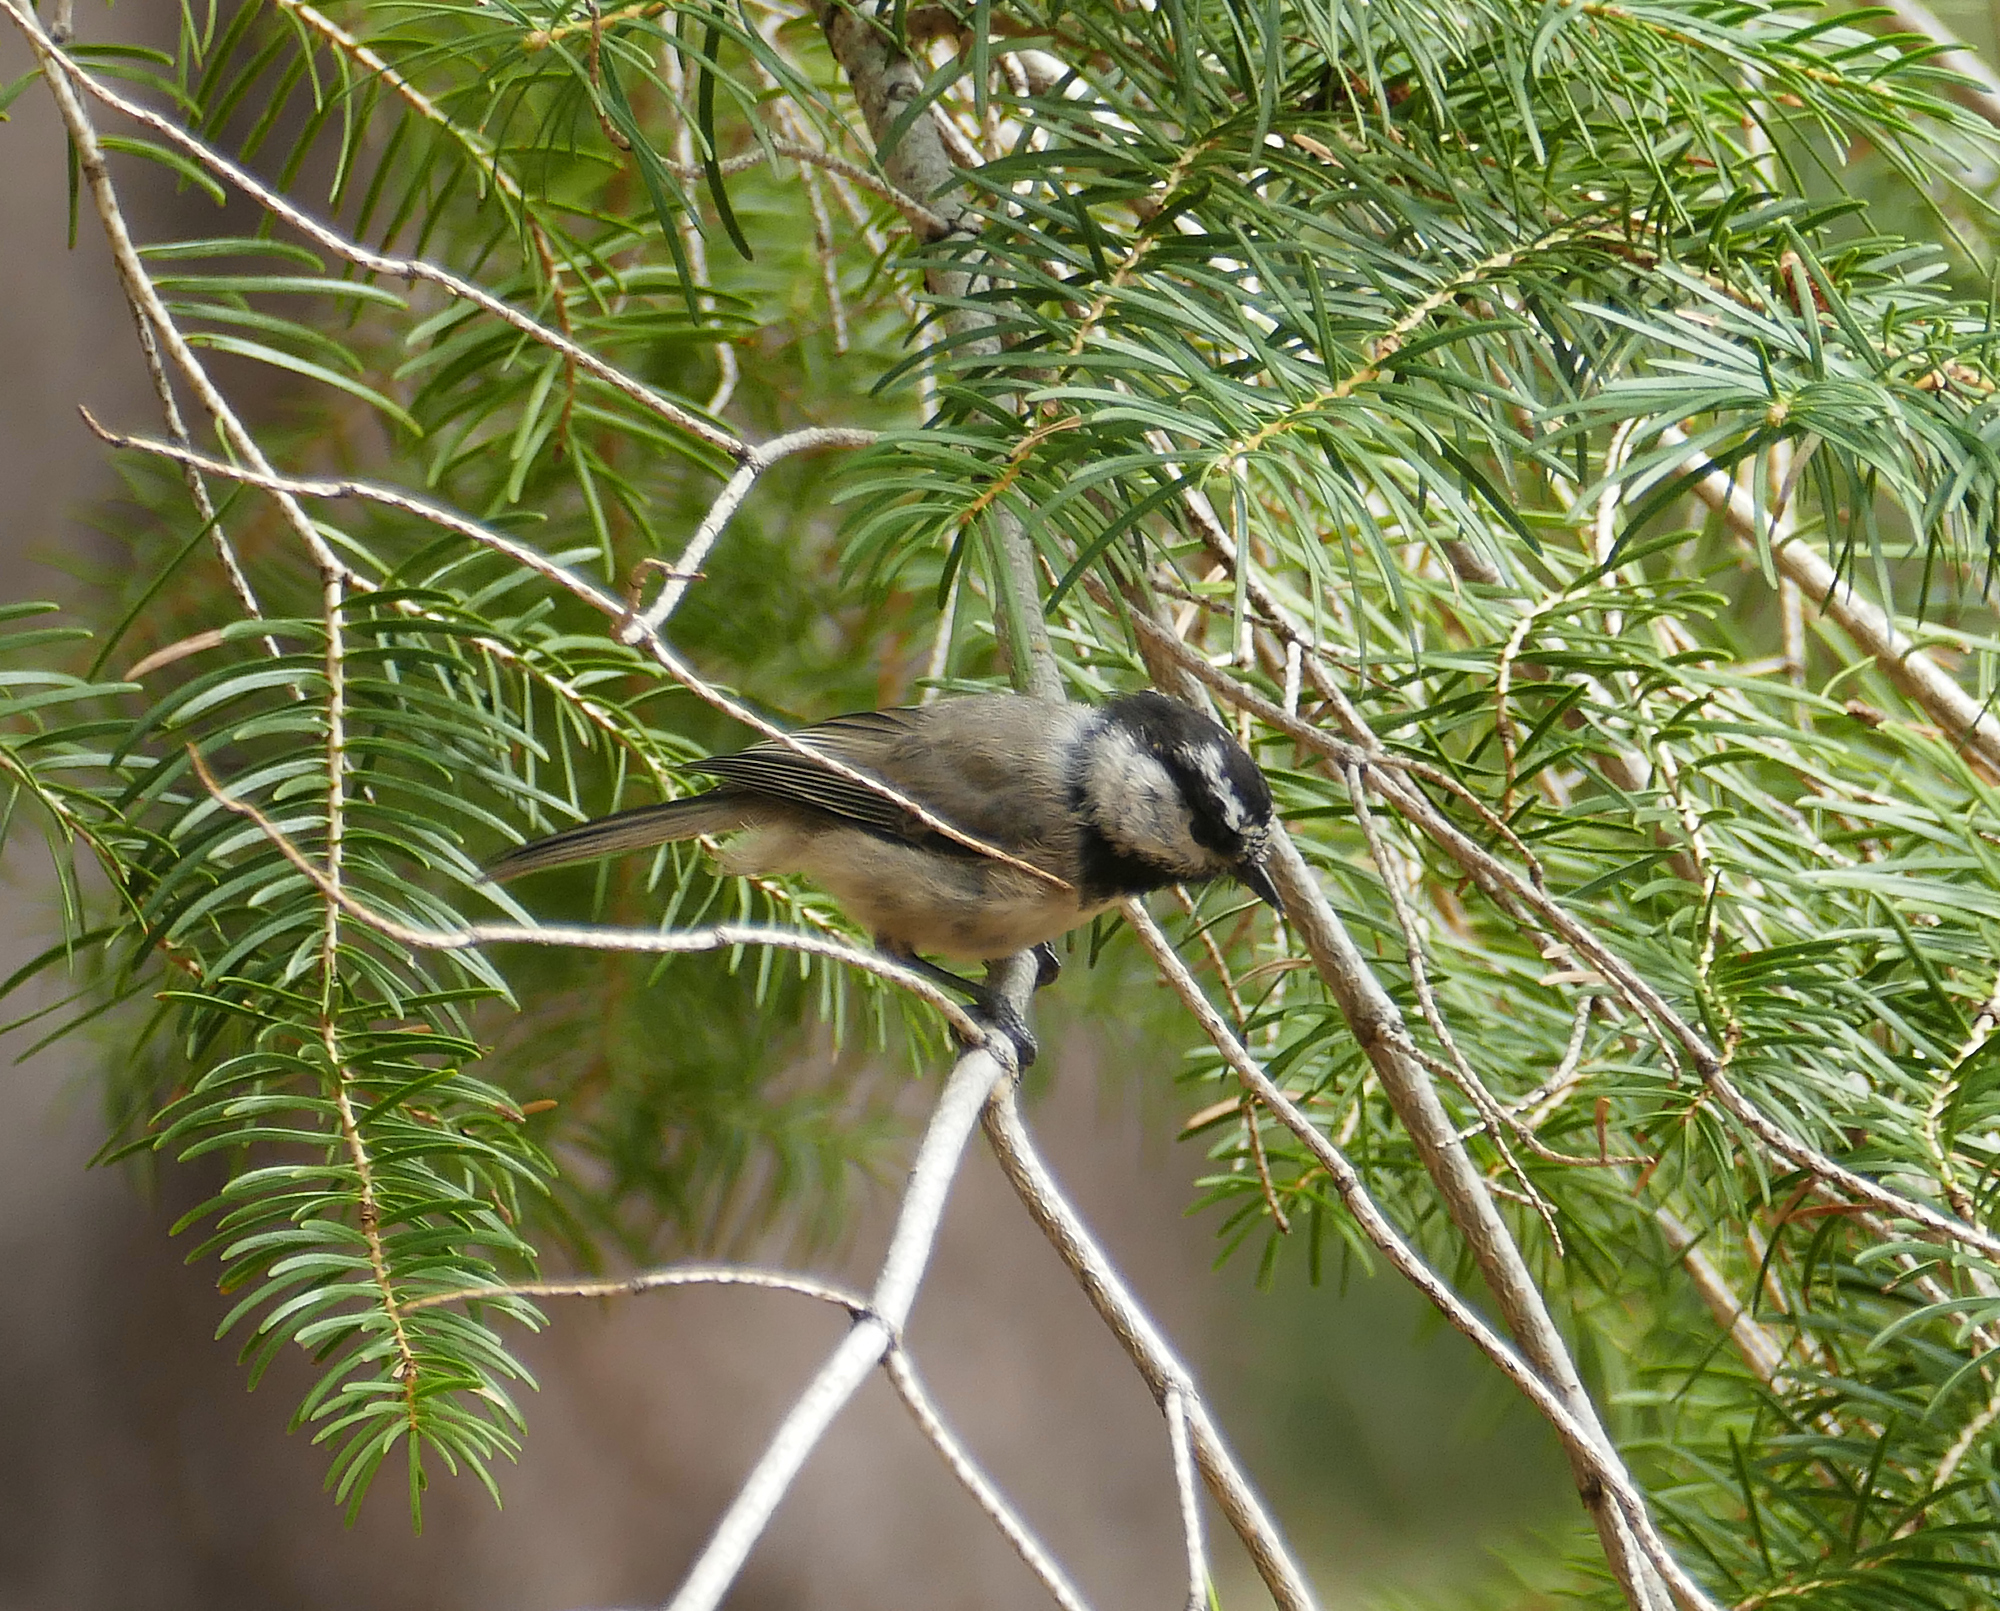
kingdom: Animalia
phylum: Chordata
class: Aves
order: Passeriformes
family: Paridae
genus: Poecile
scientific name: Poecile gambeli
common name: Mountain chickadee
